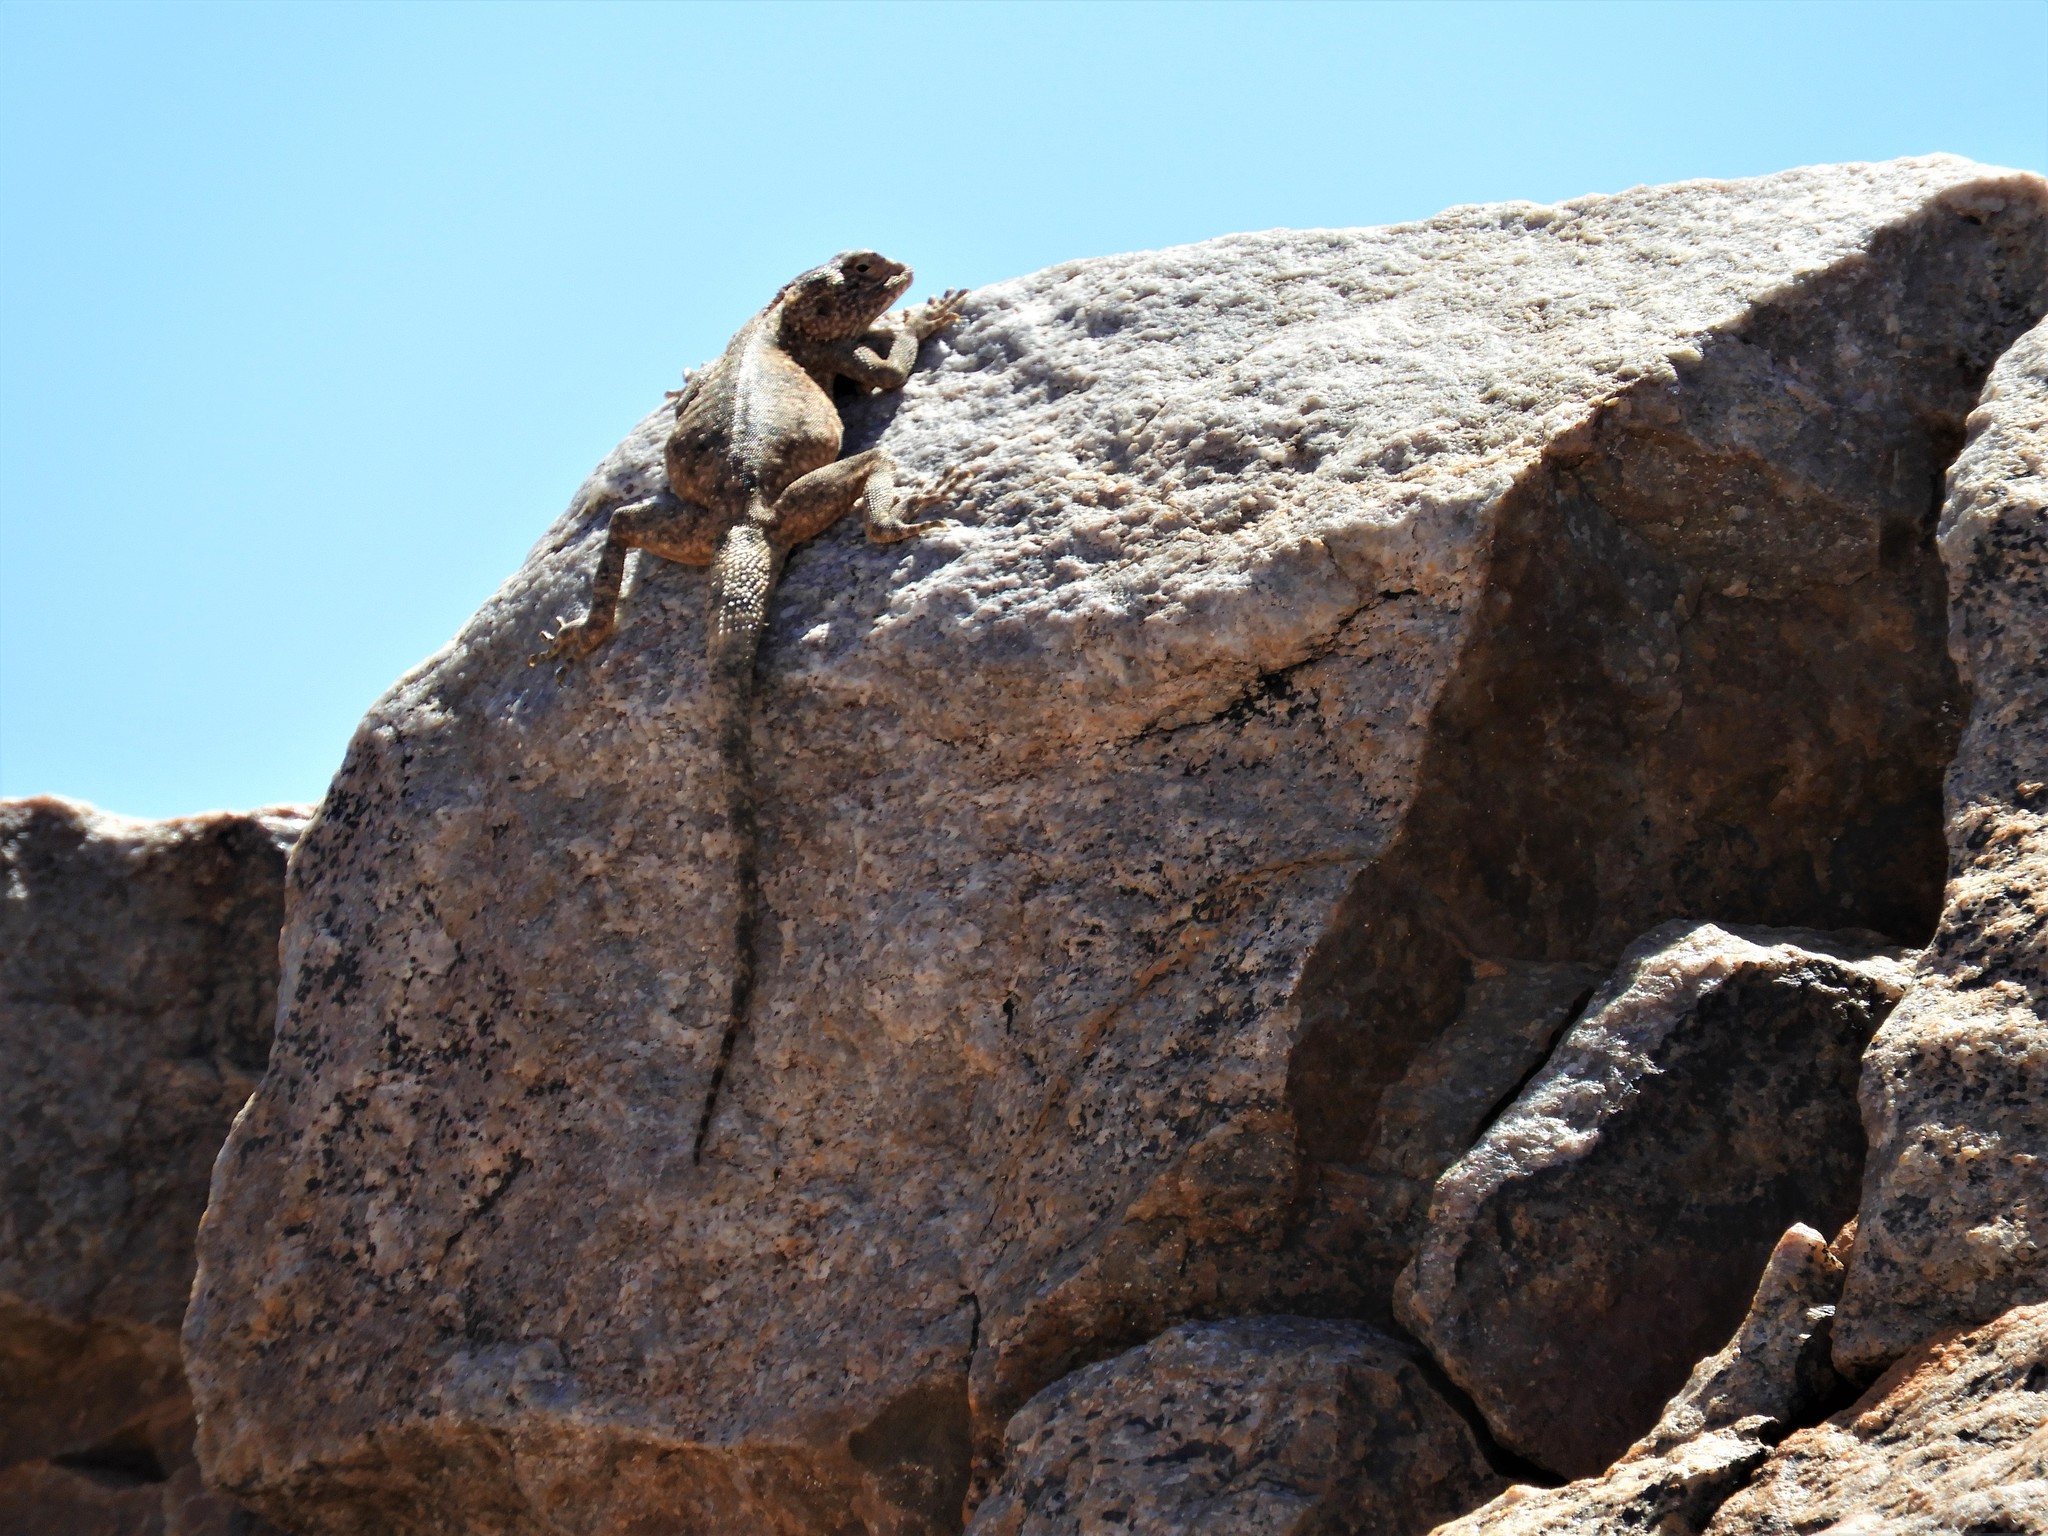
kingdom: Animalia
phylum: Chordata
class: Squamata
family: Agamidae
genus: Agama
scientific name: Agama atra
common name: Southern african rock agama
